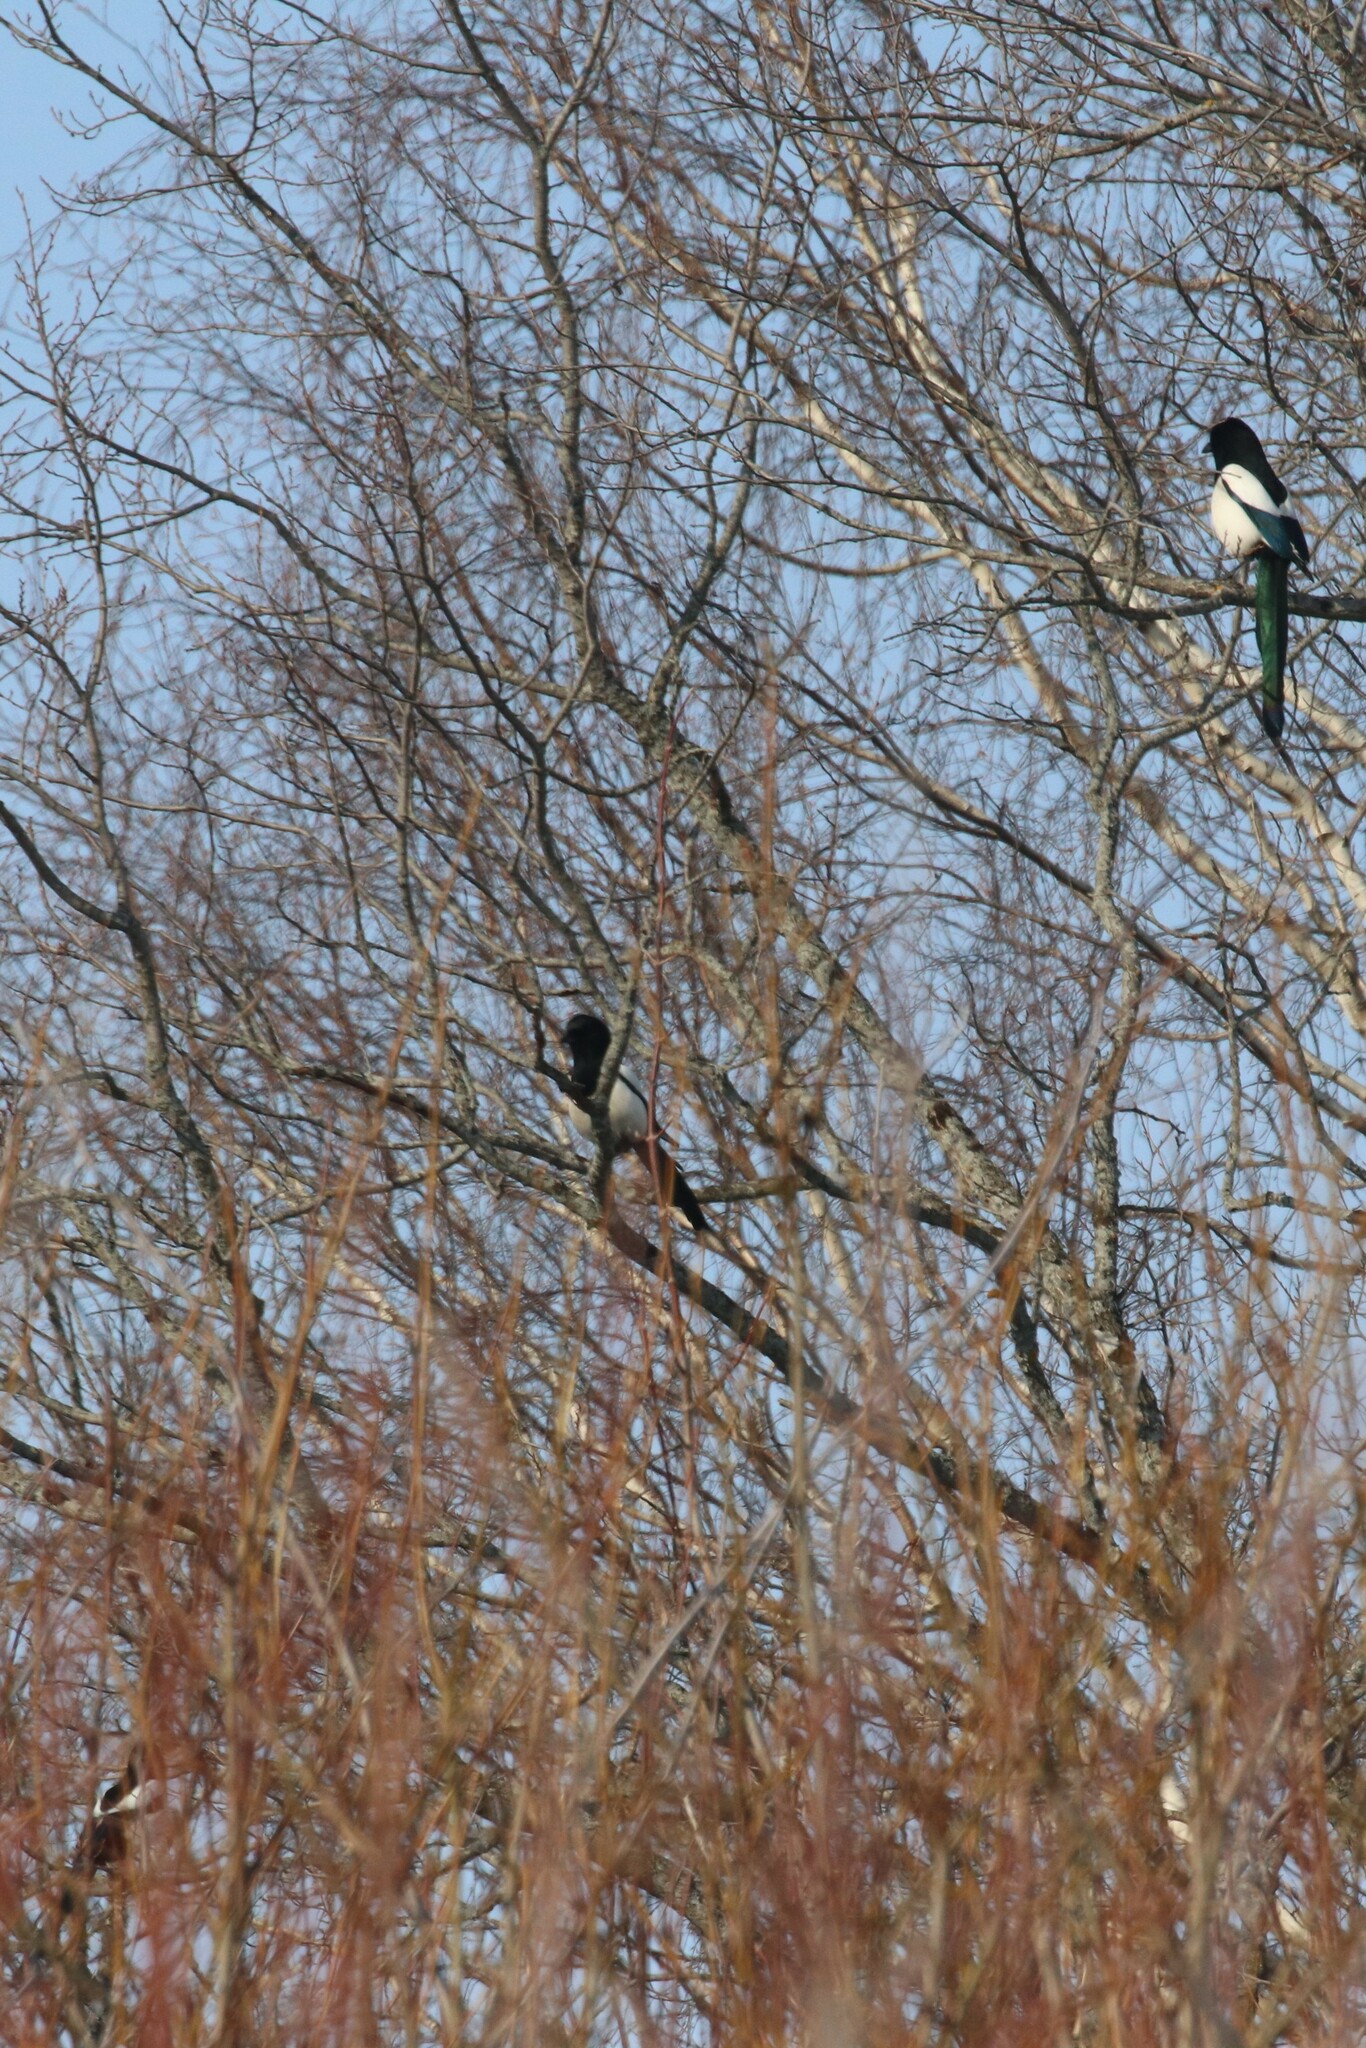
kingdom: Animalia
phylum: Chordata
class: Aves
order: Passeriformes
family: Corvidae
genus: Pica
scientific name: Pica pica
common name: Eurasian magpie
